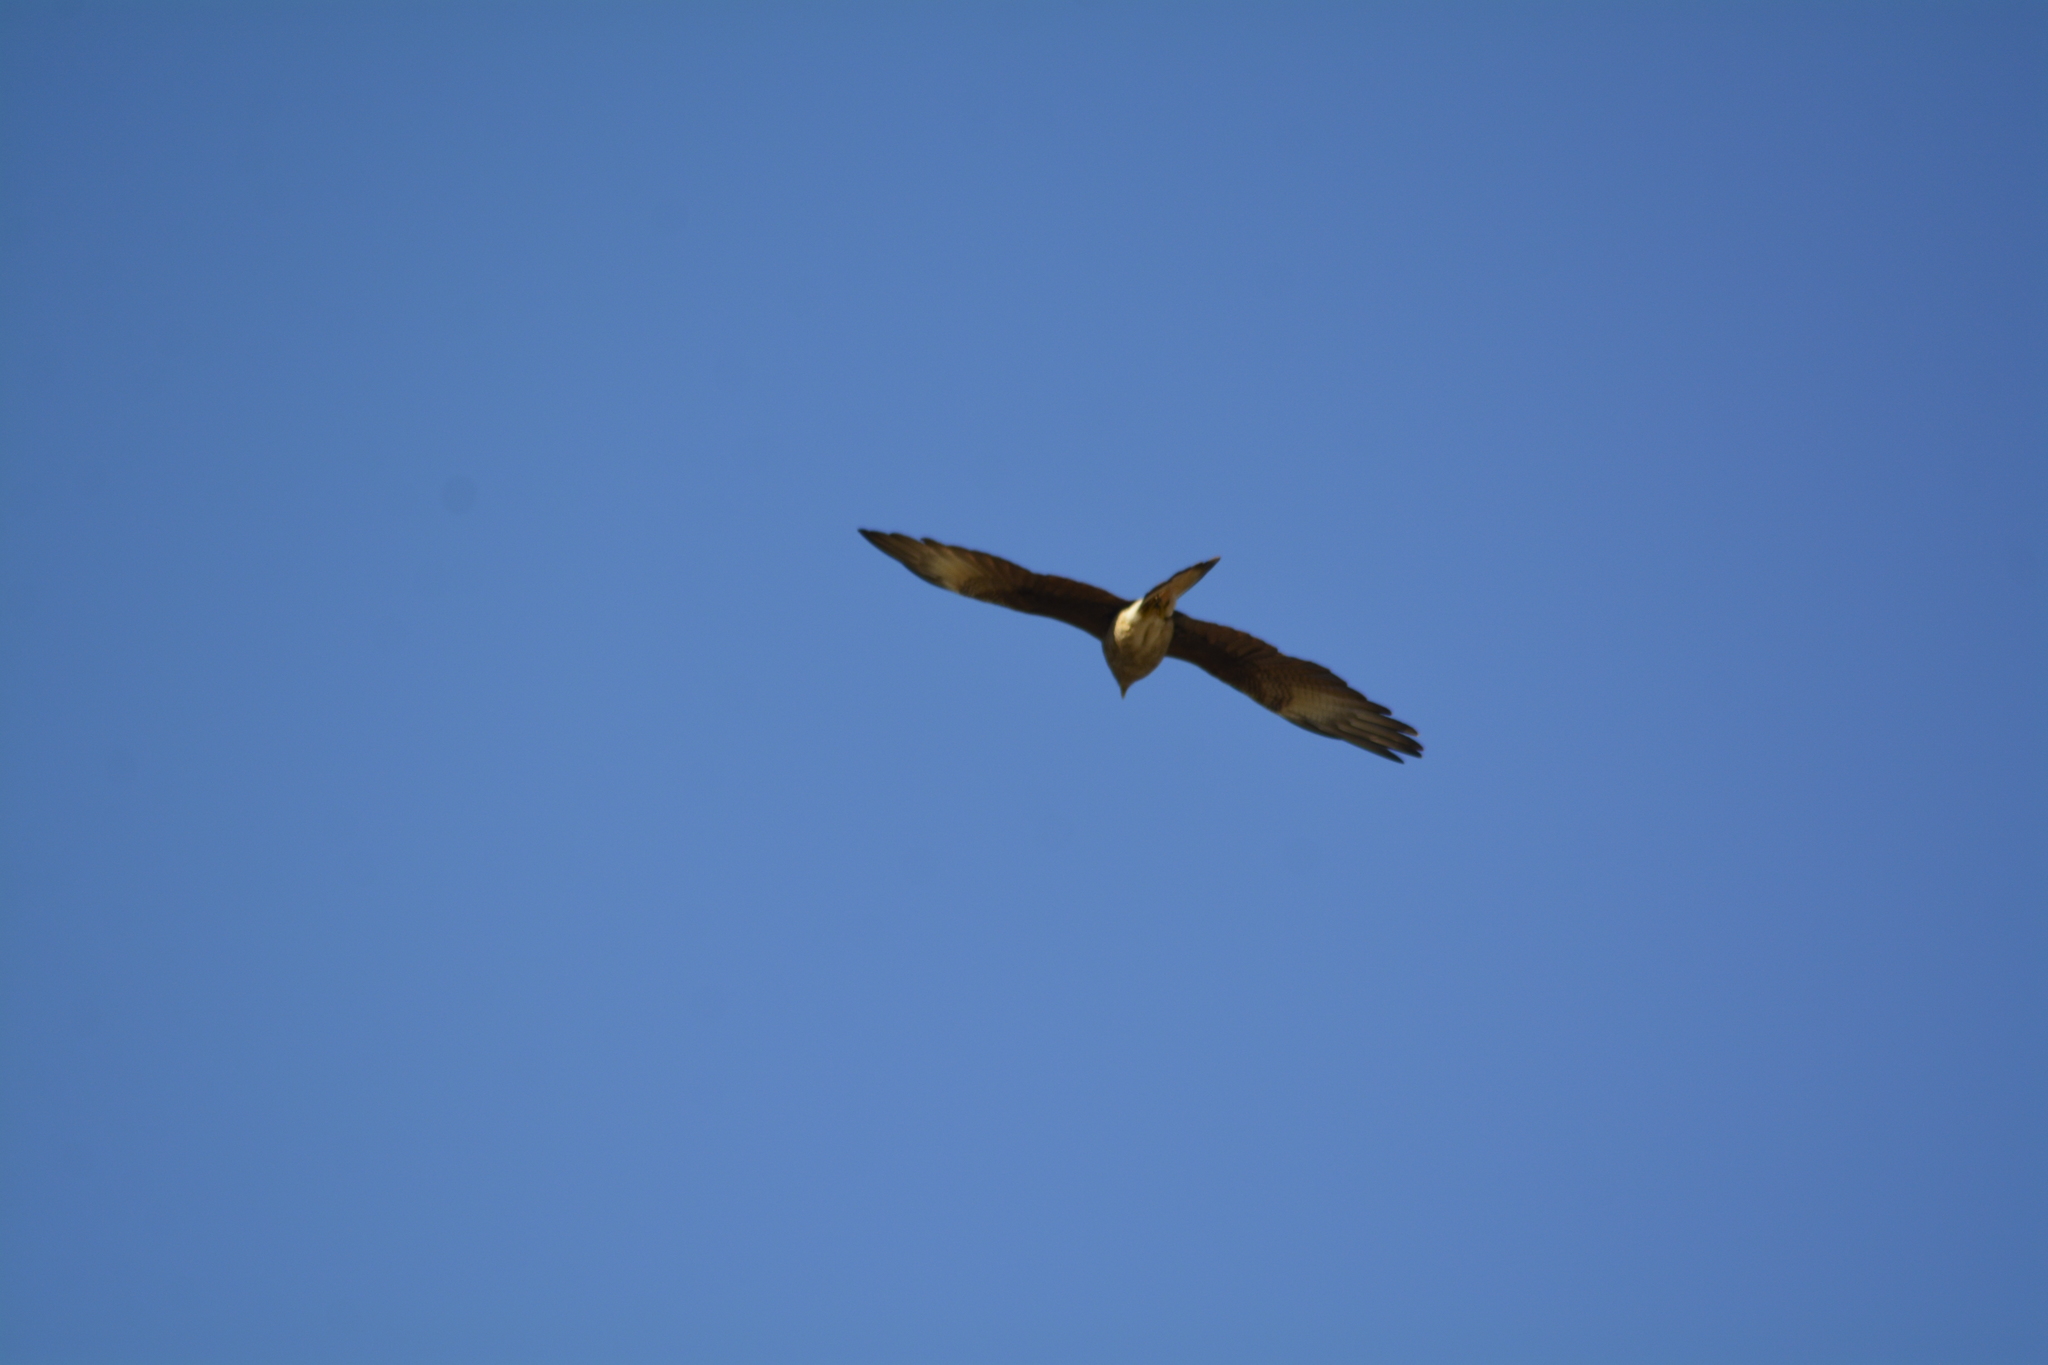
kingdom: Animalia
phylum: Chordata
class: Aves
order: Falconiformes
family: Falconidae
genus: Daptrius
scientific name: Daptrius
